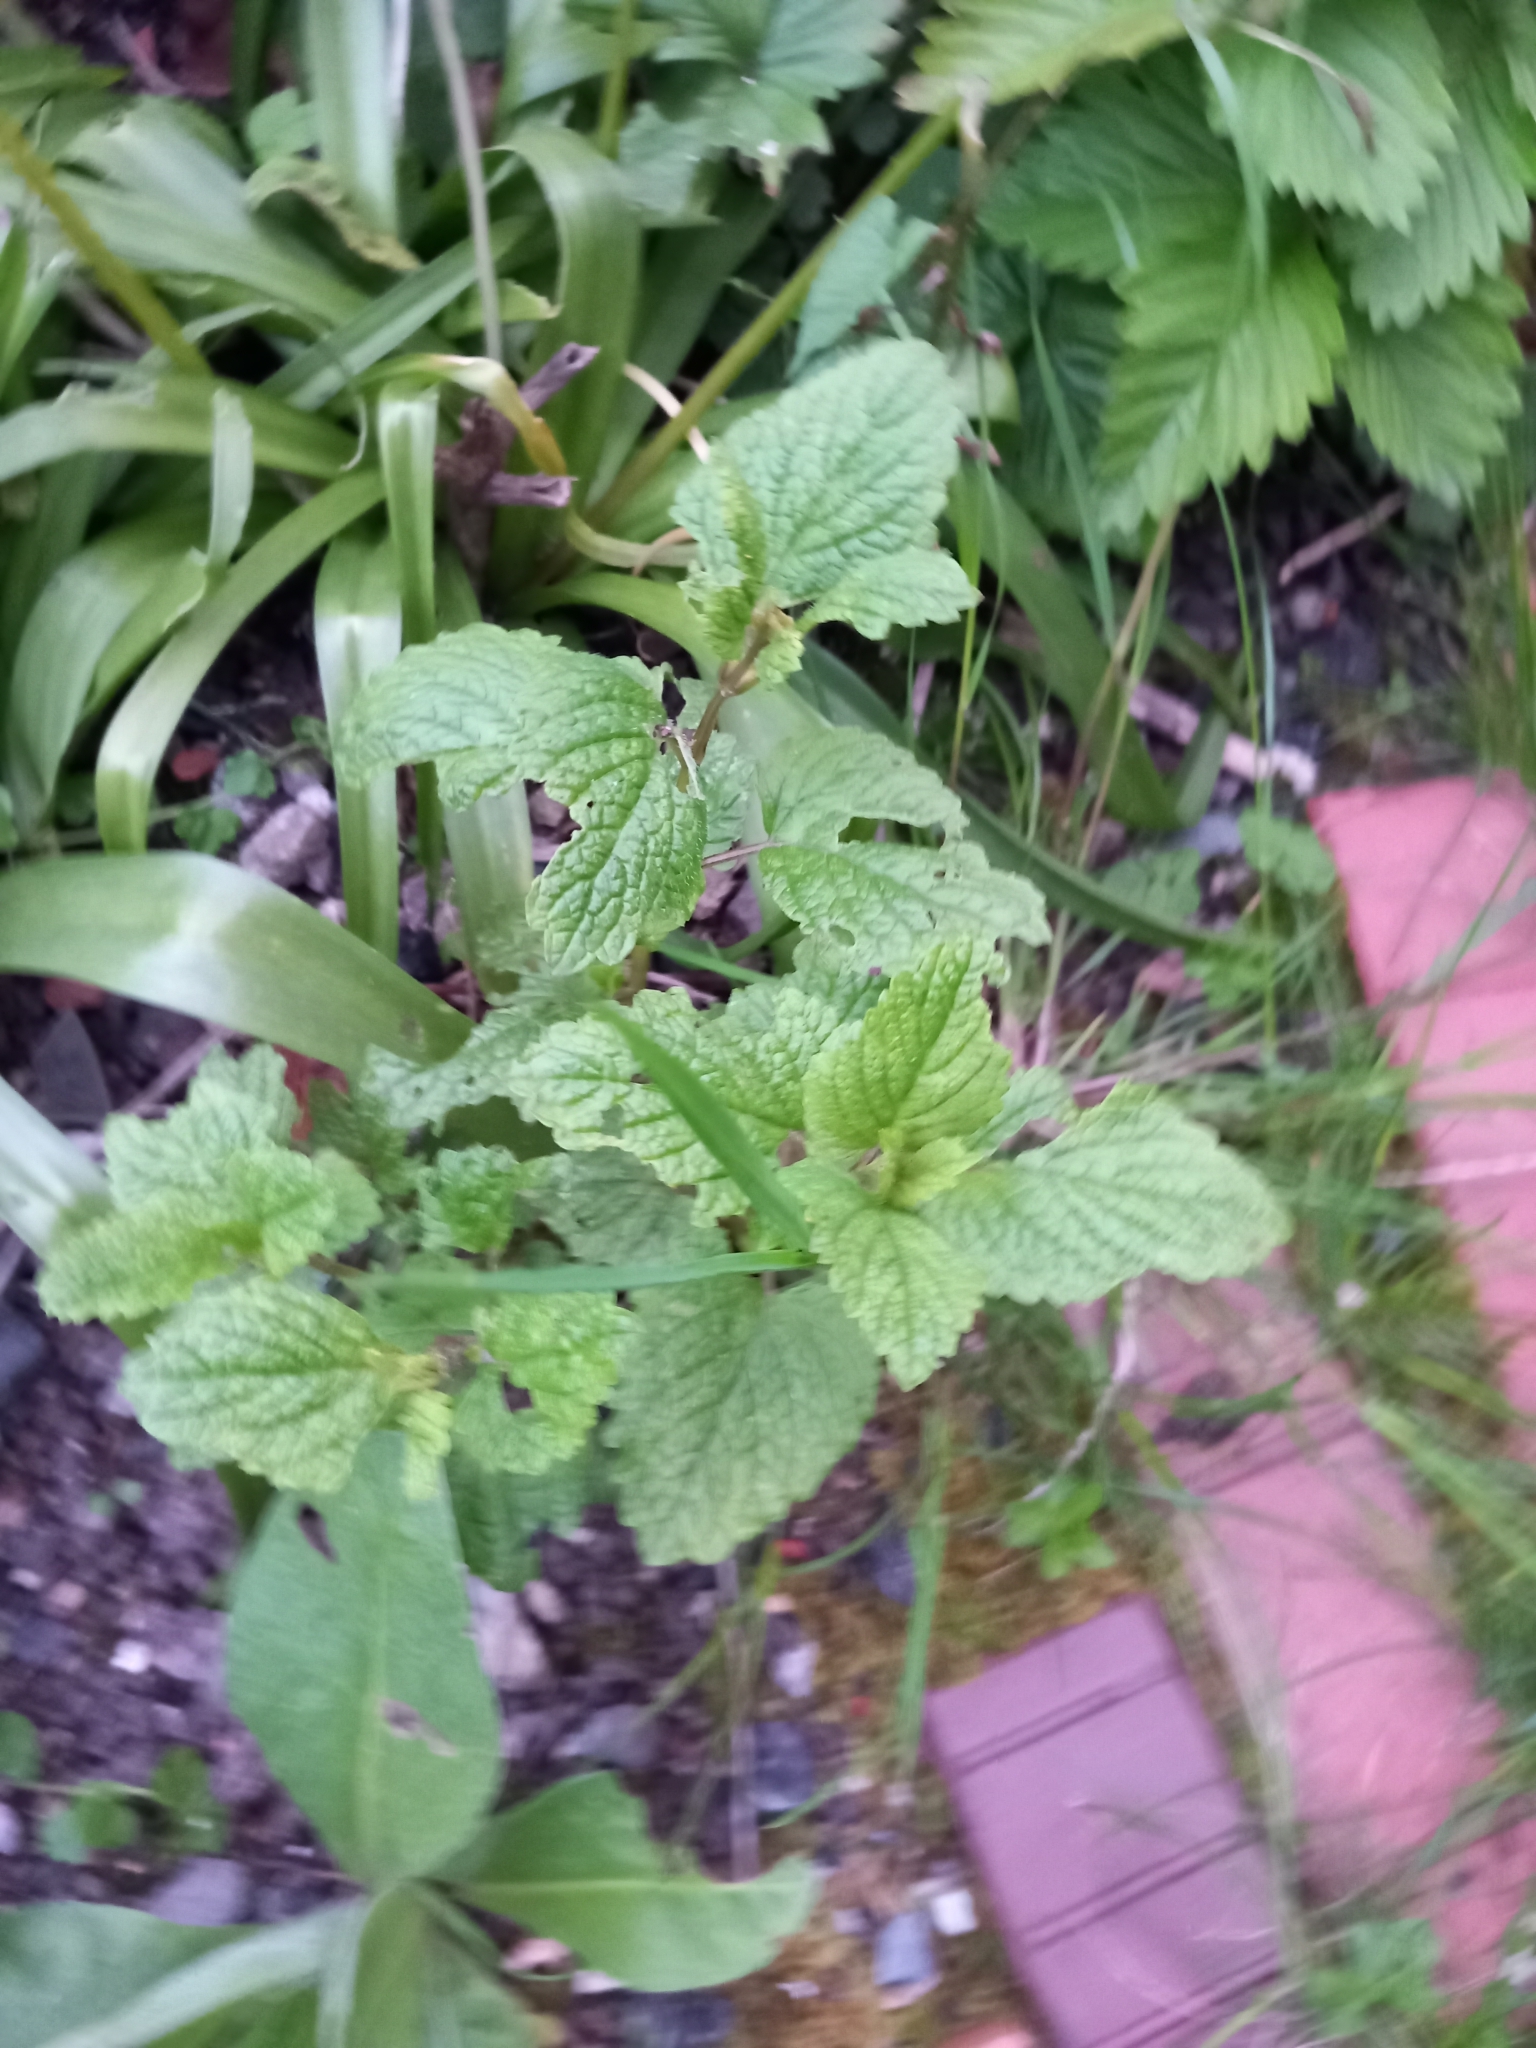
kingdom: Plantae
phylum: Tracheophyta
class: Magnoliopsida
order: Lamiales
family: Lamiaceae
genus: Melissa
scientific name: Melissa officinalis
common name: Balm
